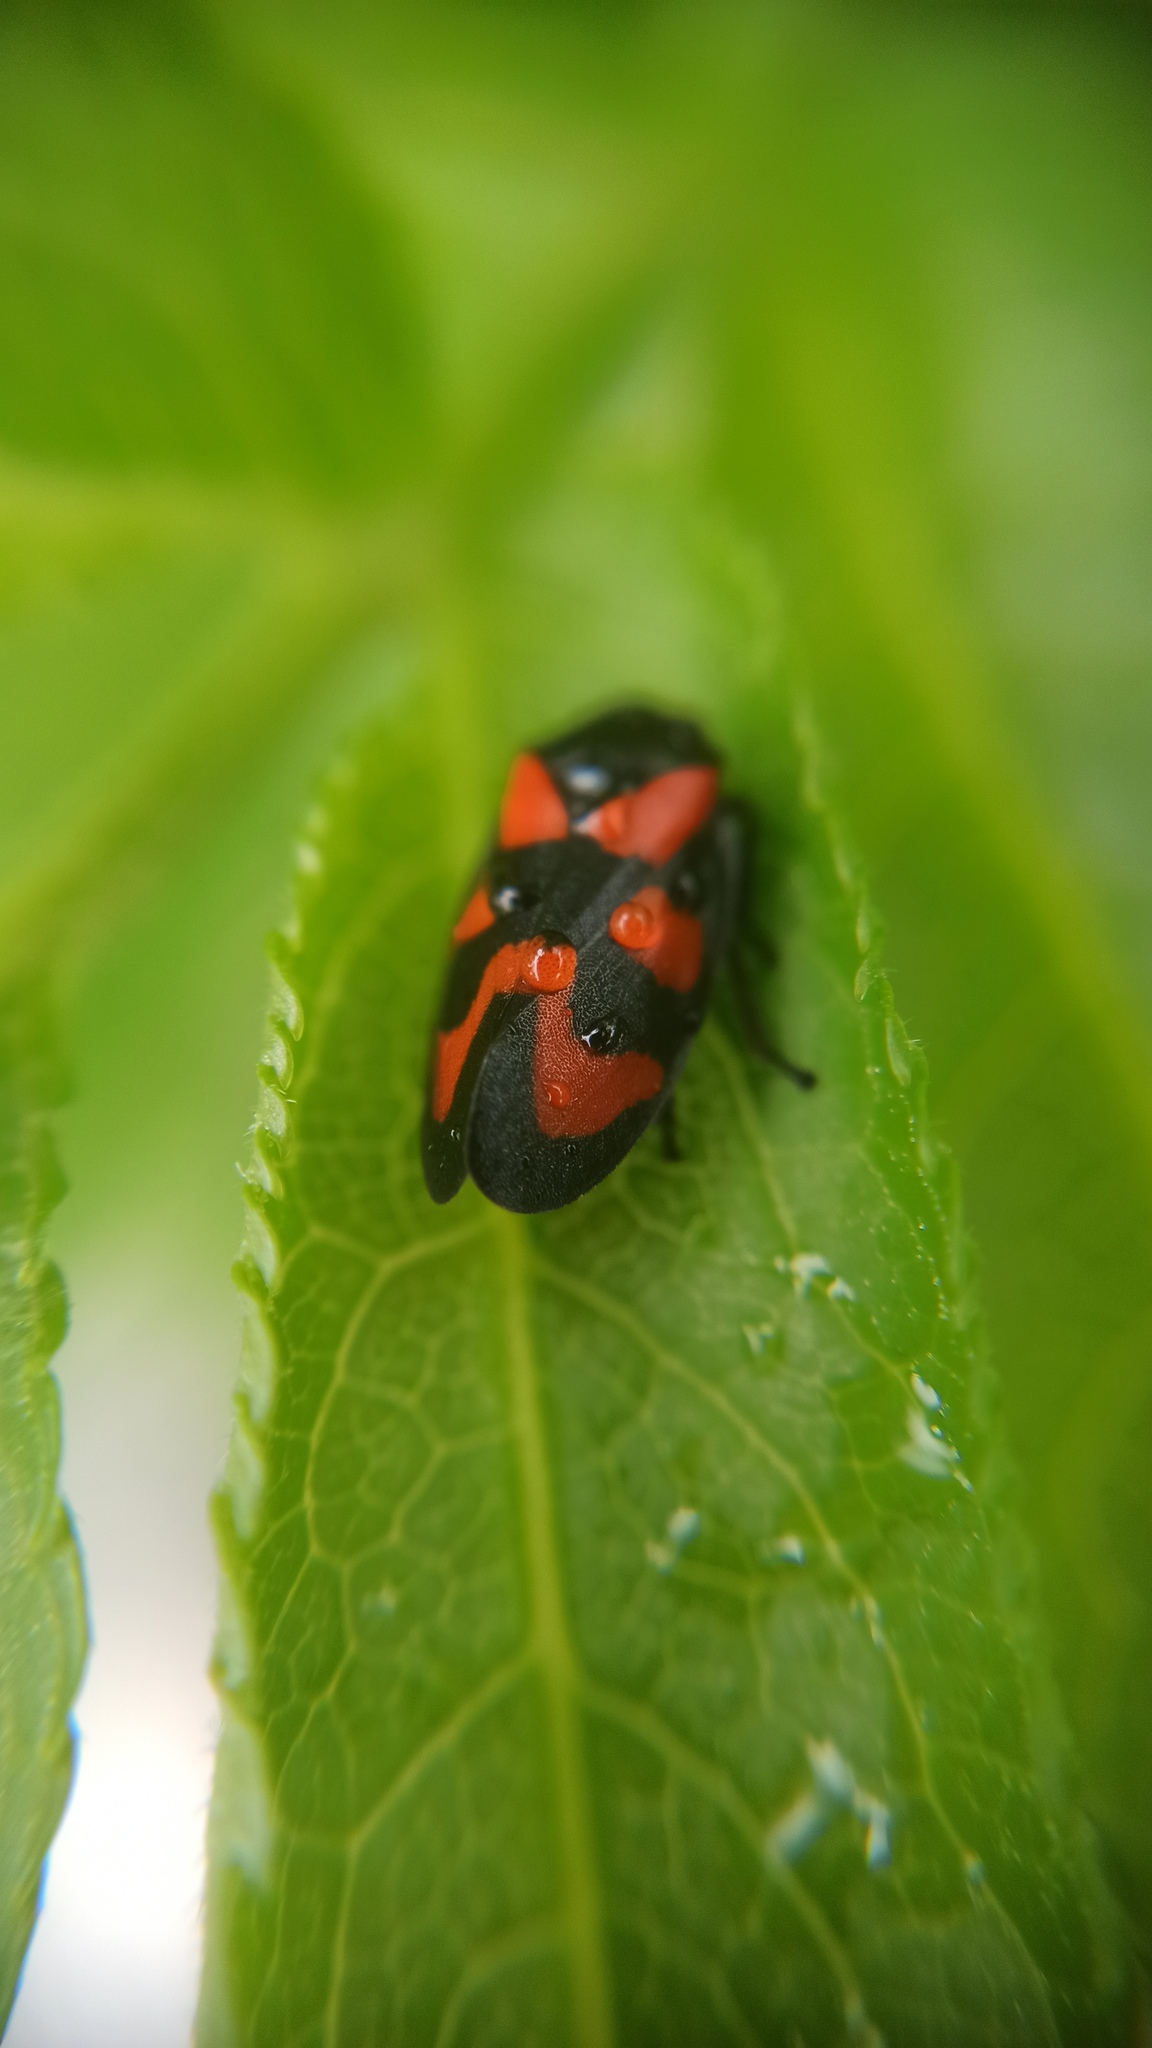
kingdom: Animalia
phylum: Arthropoda
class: Insecta
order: Hemiptera
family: Cercopidae
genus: Cercopis
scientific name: Cercopis vulnerata
